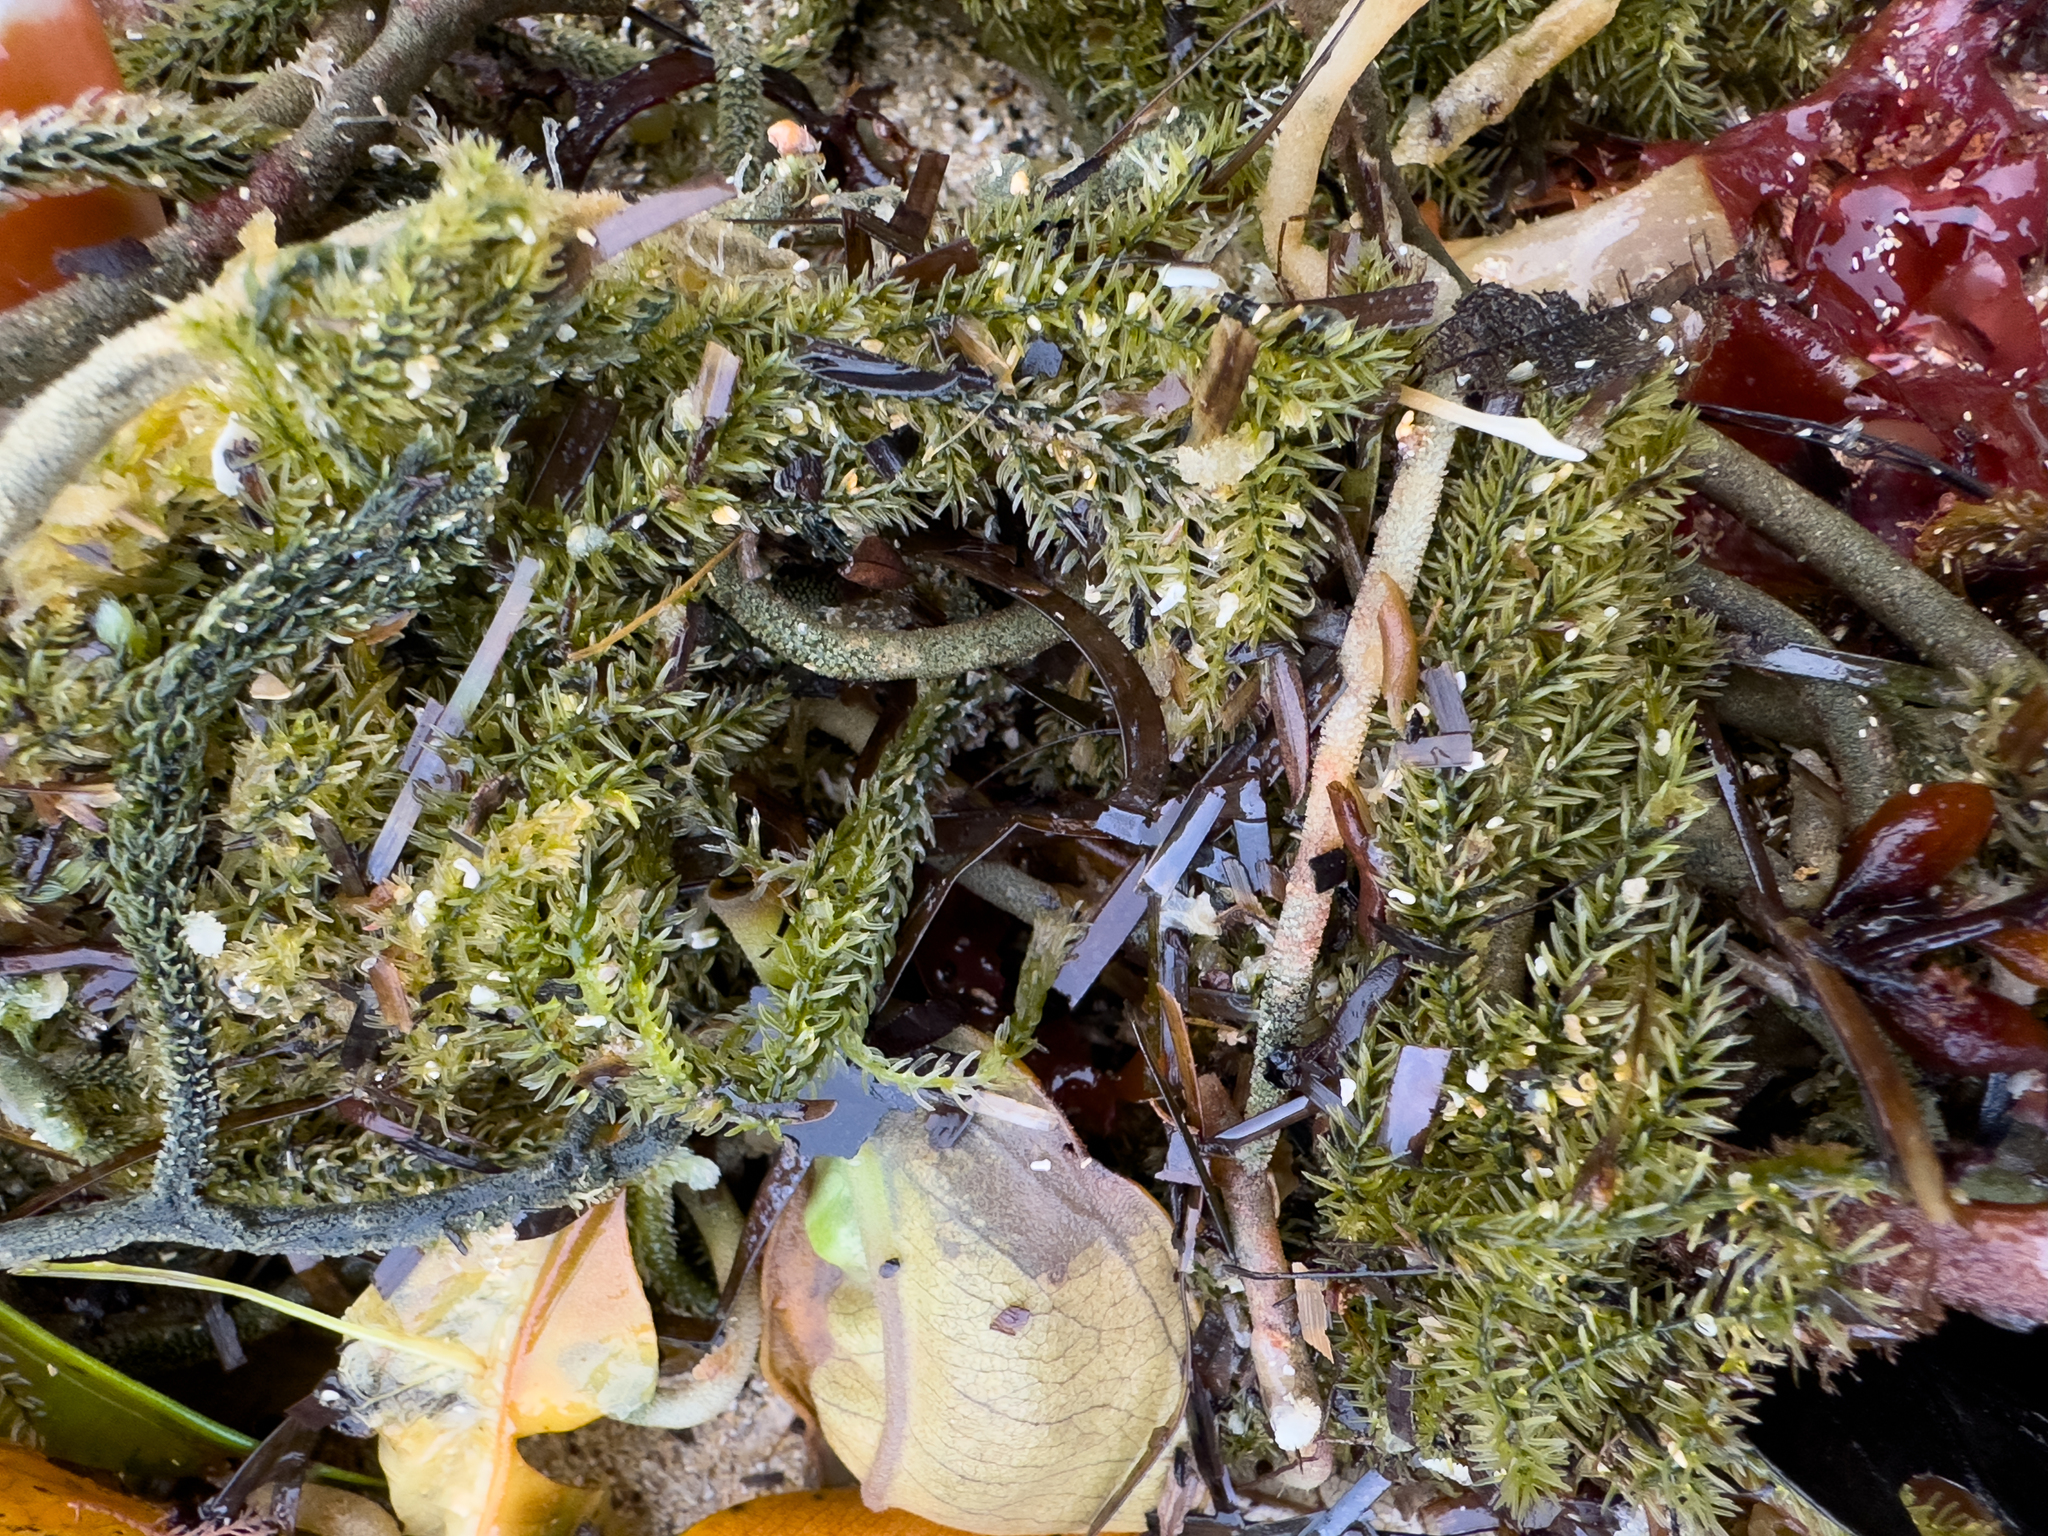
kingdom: Plantae
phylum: Chlorophyta
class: Ulvophyceae
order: Bryopsidales
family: Caulerpaceae
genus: Caulerpa
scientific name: Caulerpa brownii
